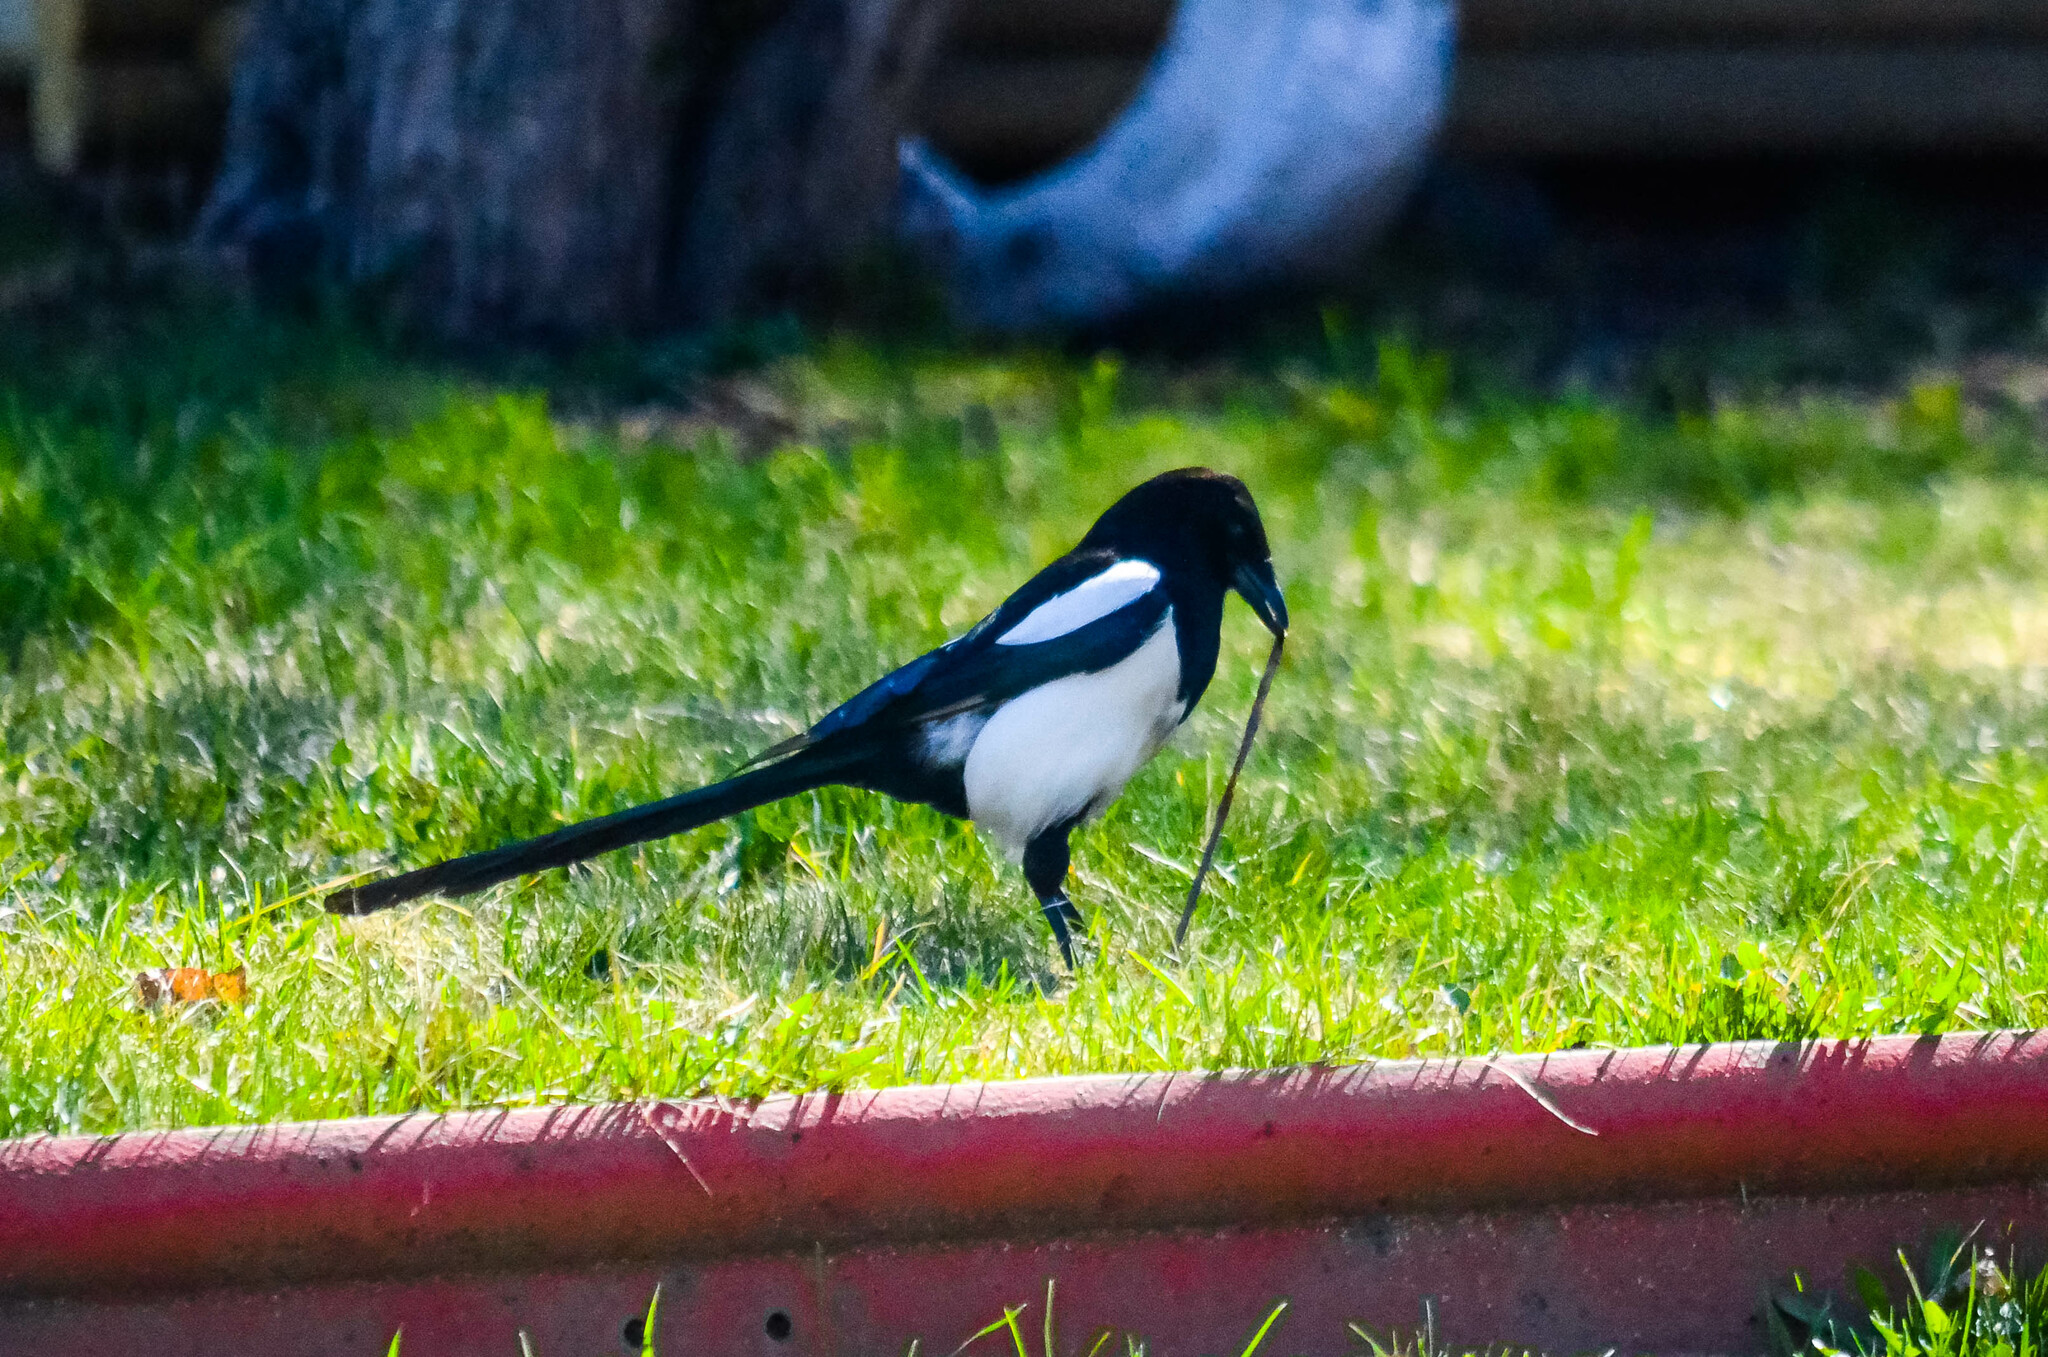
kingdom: Animalia
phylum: Chordata
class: Aves
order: Passeriformes
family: Corvidae
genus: Pica
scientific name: Pica pica
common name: Eurasian magpie
